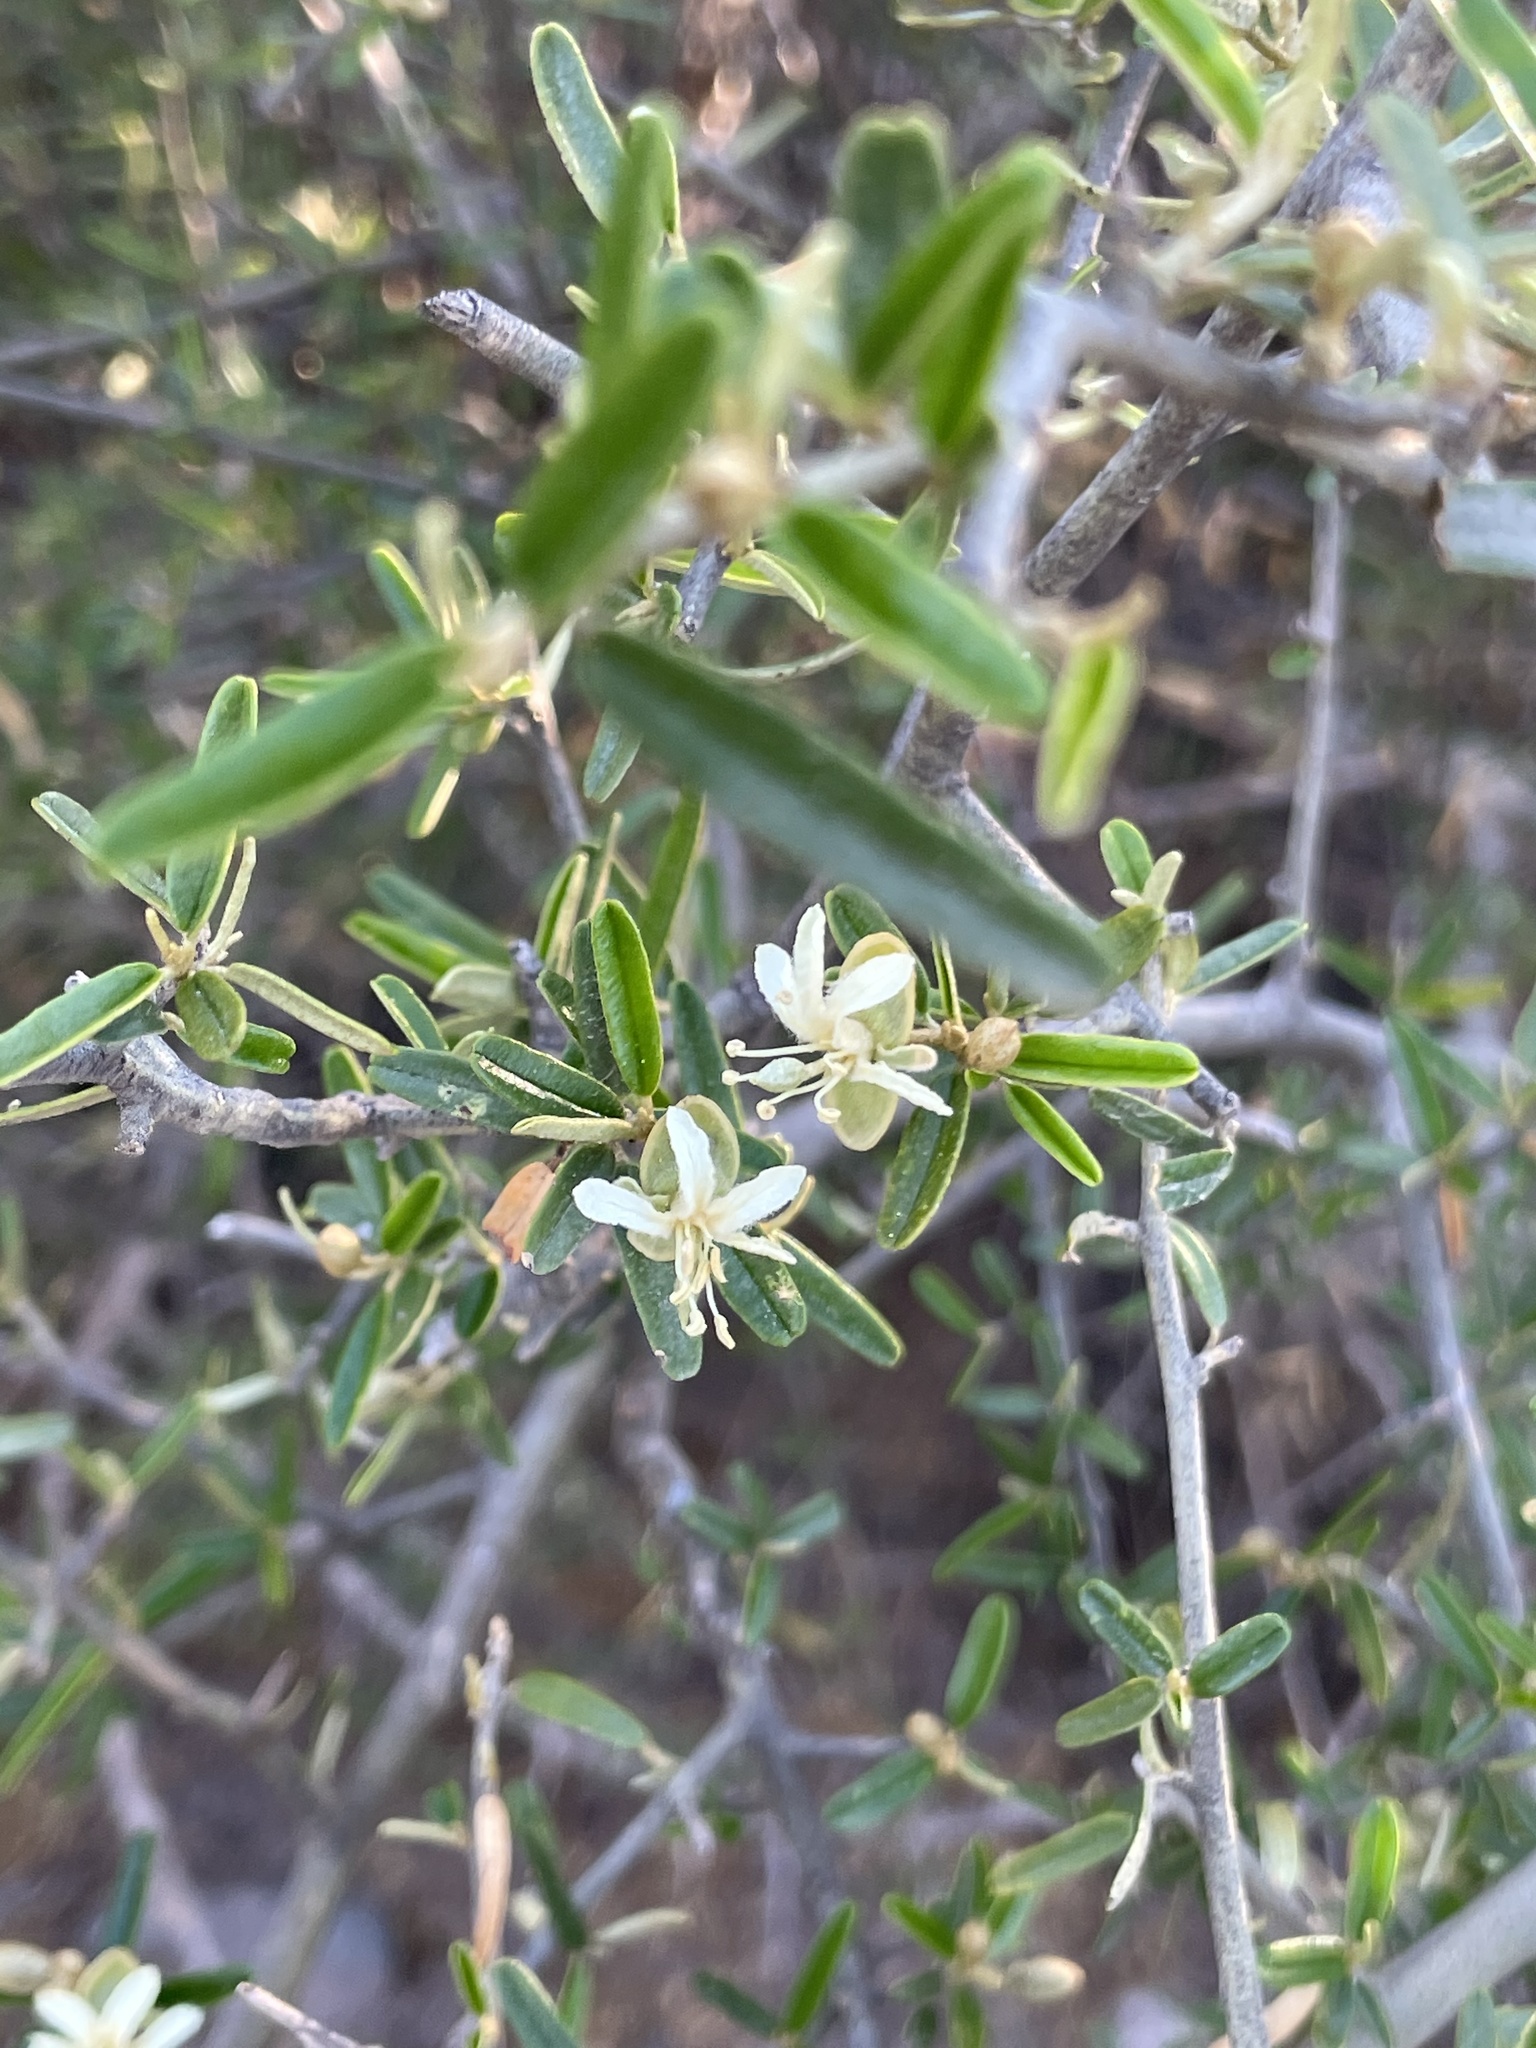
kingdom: Plantae
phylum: Tracheophyta
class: Magnoliopsida
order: Brassicales
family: Capparaceae
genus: Atamisquea
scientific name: Atamisquea emarginata
